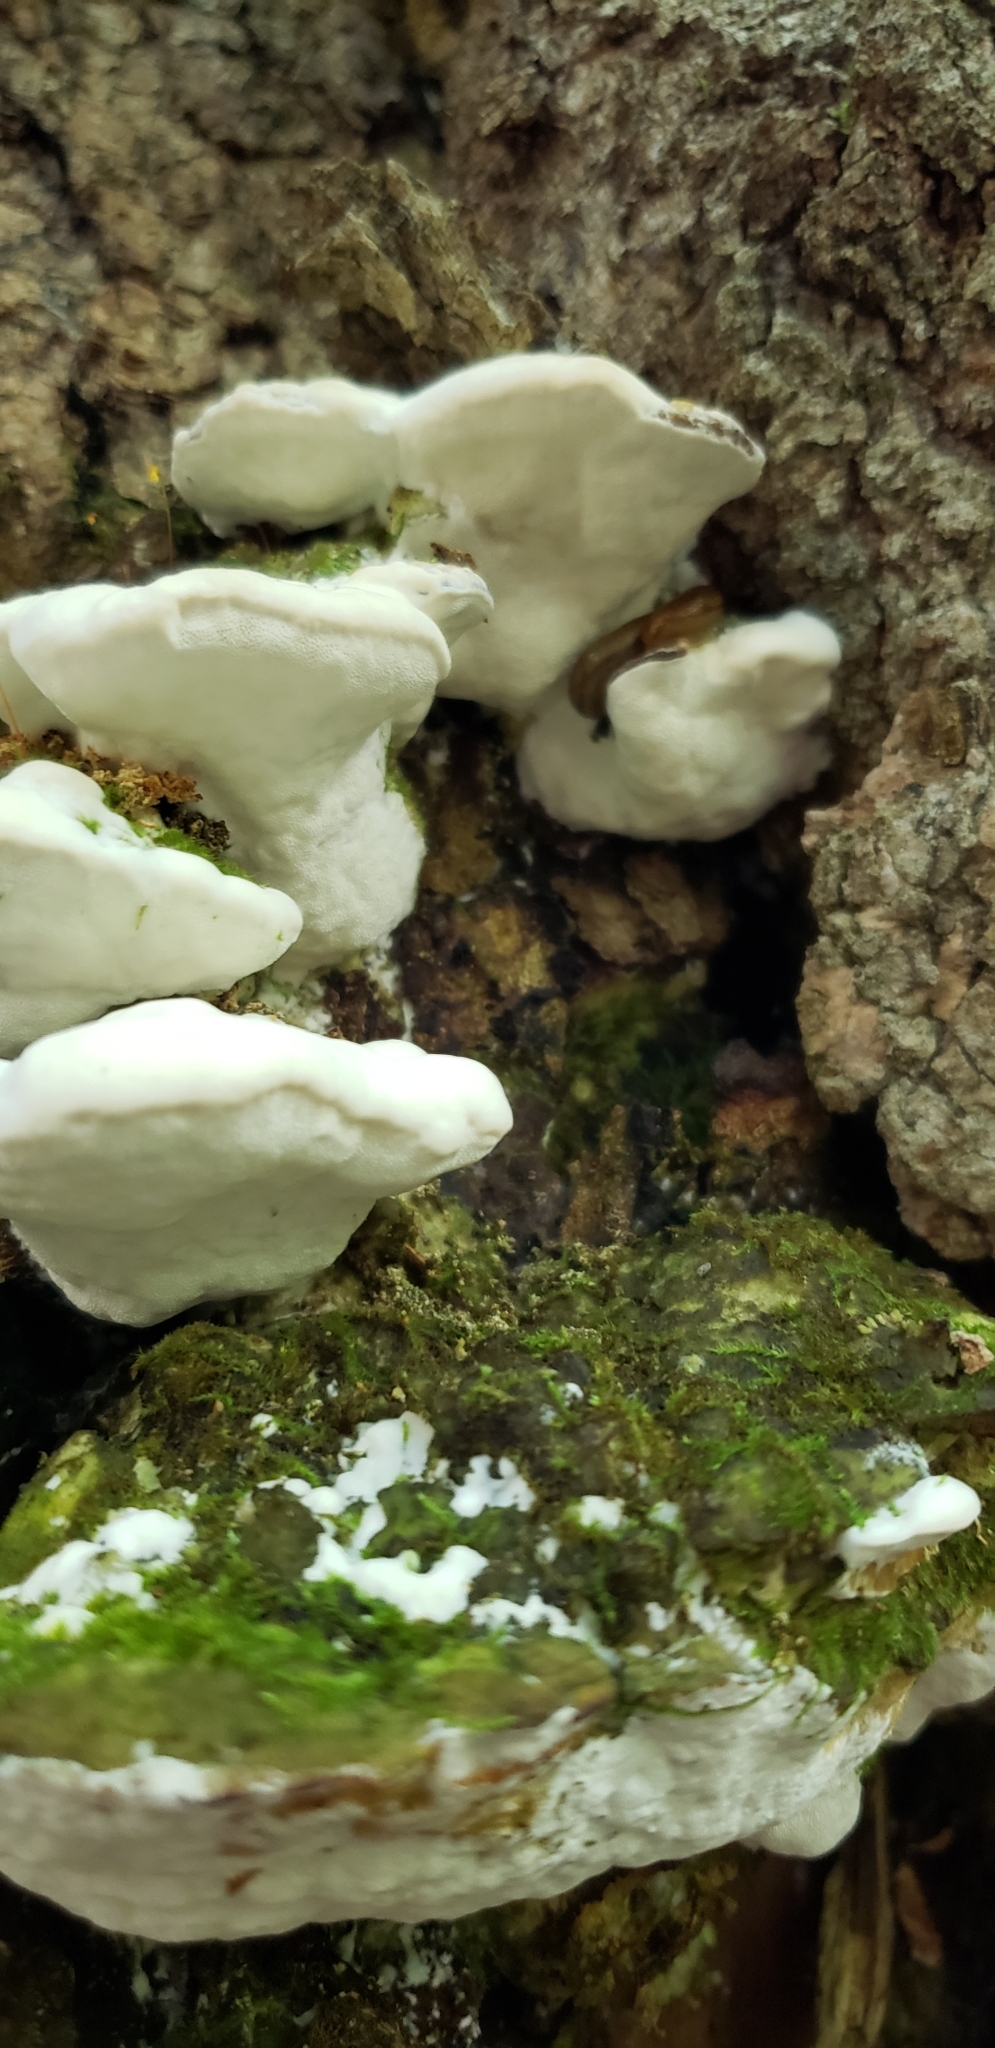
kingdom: Fungi
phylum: Basidiomycota
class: Agaricomycetes
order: Hymenochaetales
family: Oxyporaceae
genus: Oxyporus
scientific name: Oxyporus populinus
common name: Poplar bracket
